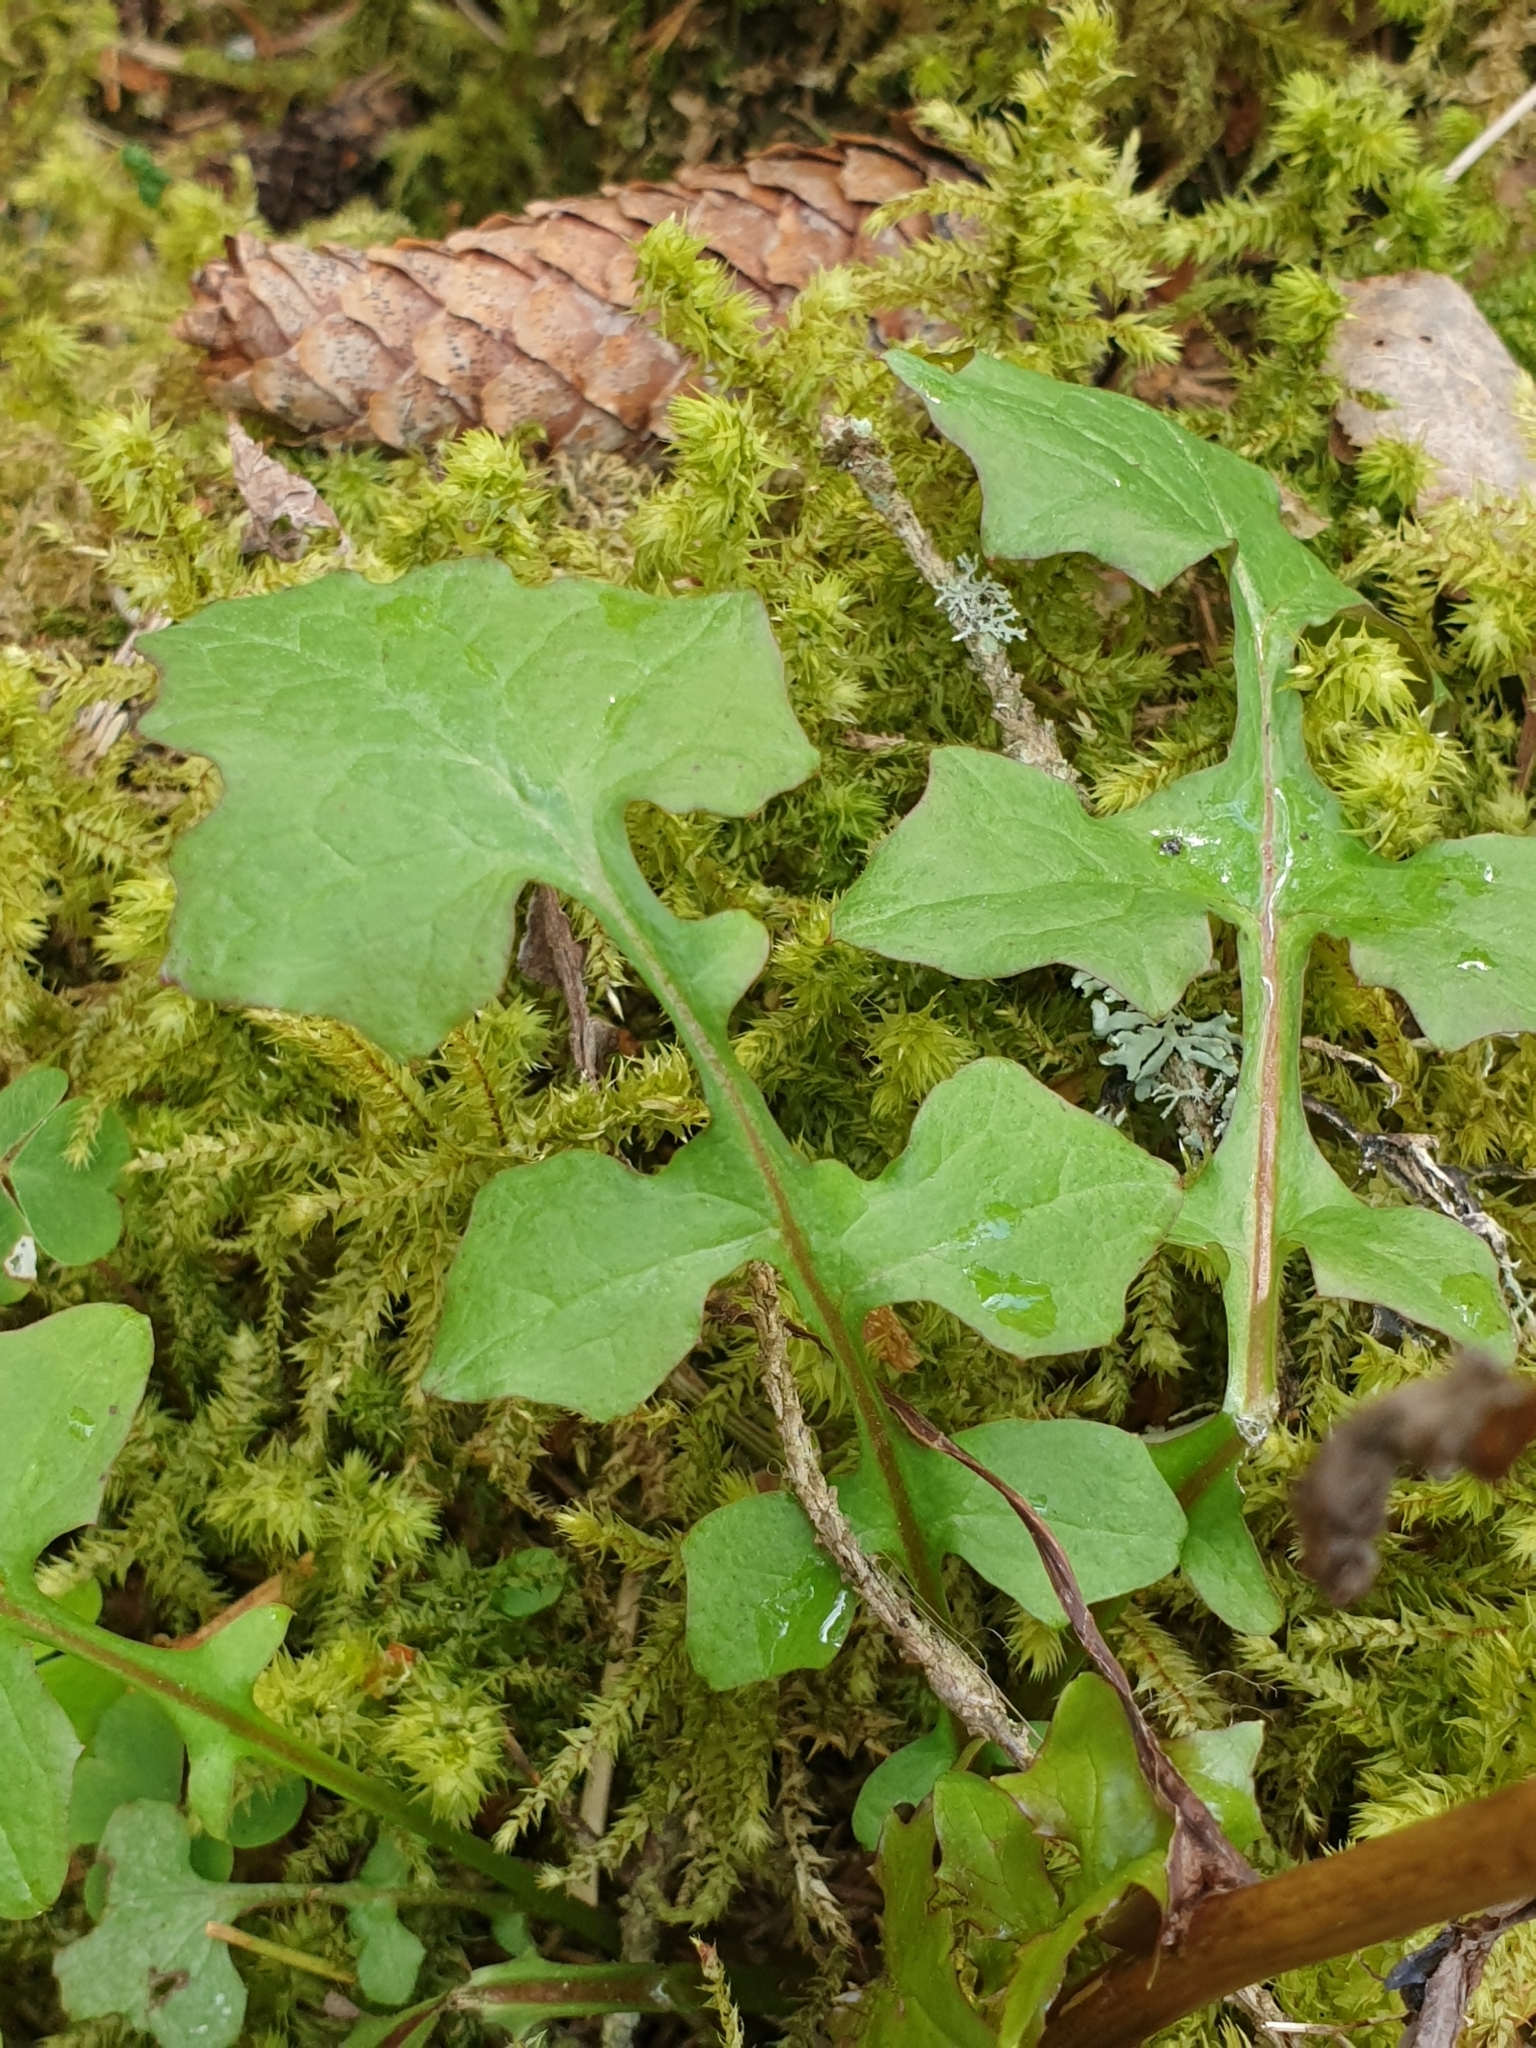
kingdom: Plantae
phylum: Tracheophyta
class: Magnoliopsida
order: Asterales
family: Asteraceae
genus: Mycelis
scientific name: Mycelis muralis
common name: Wall lettuce
